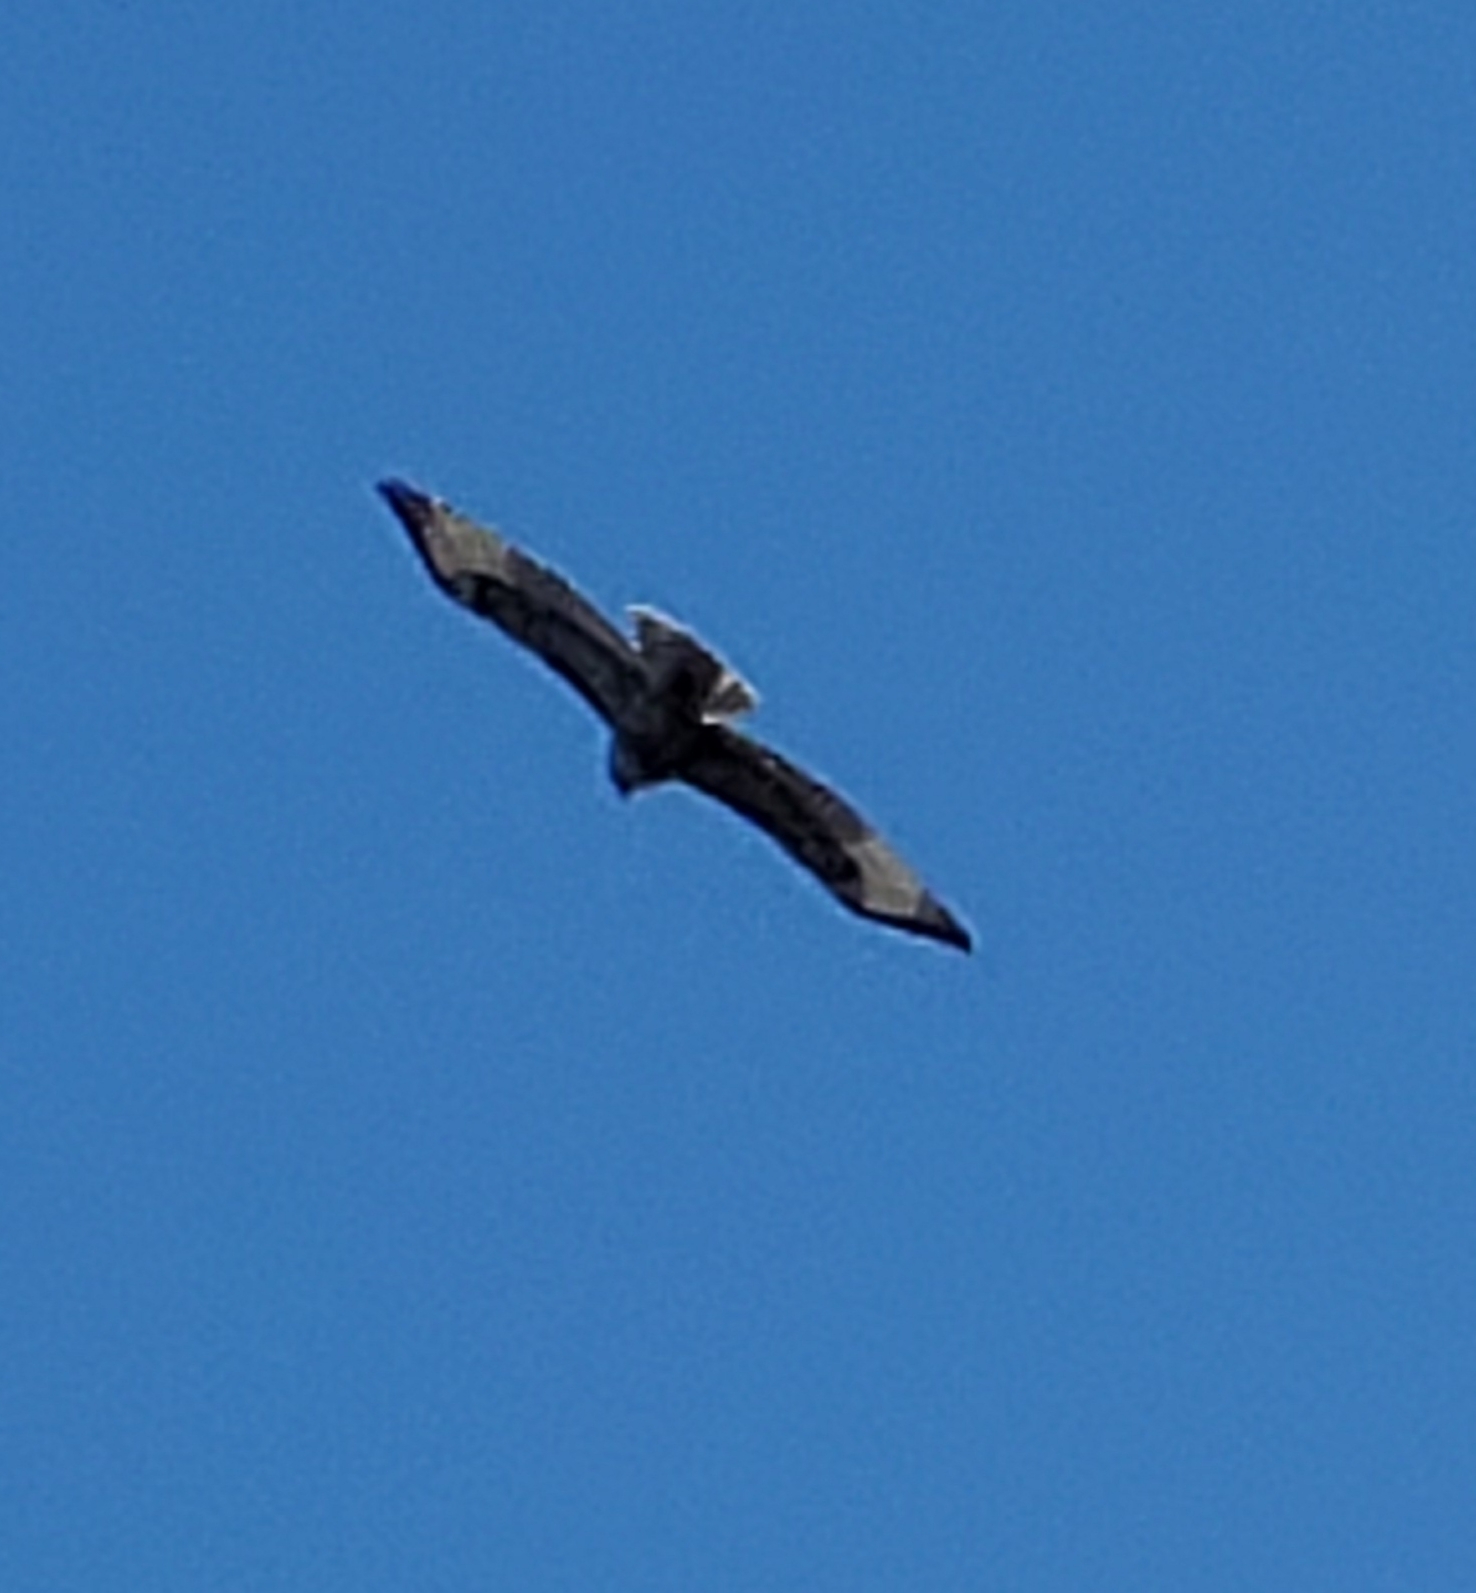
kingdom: Animalia
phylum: Chordata
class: Aves
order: Accipitriformes
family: Accipitridae
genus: Buteo
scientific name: Buteo jamaicensis
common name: Red-tailed hawk
